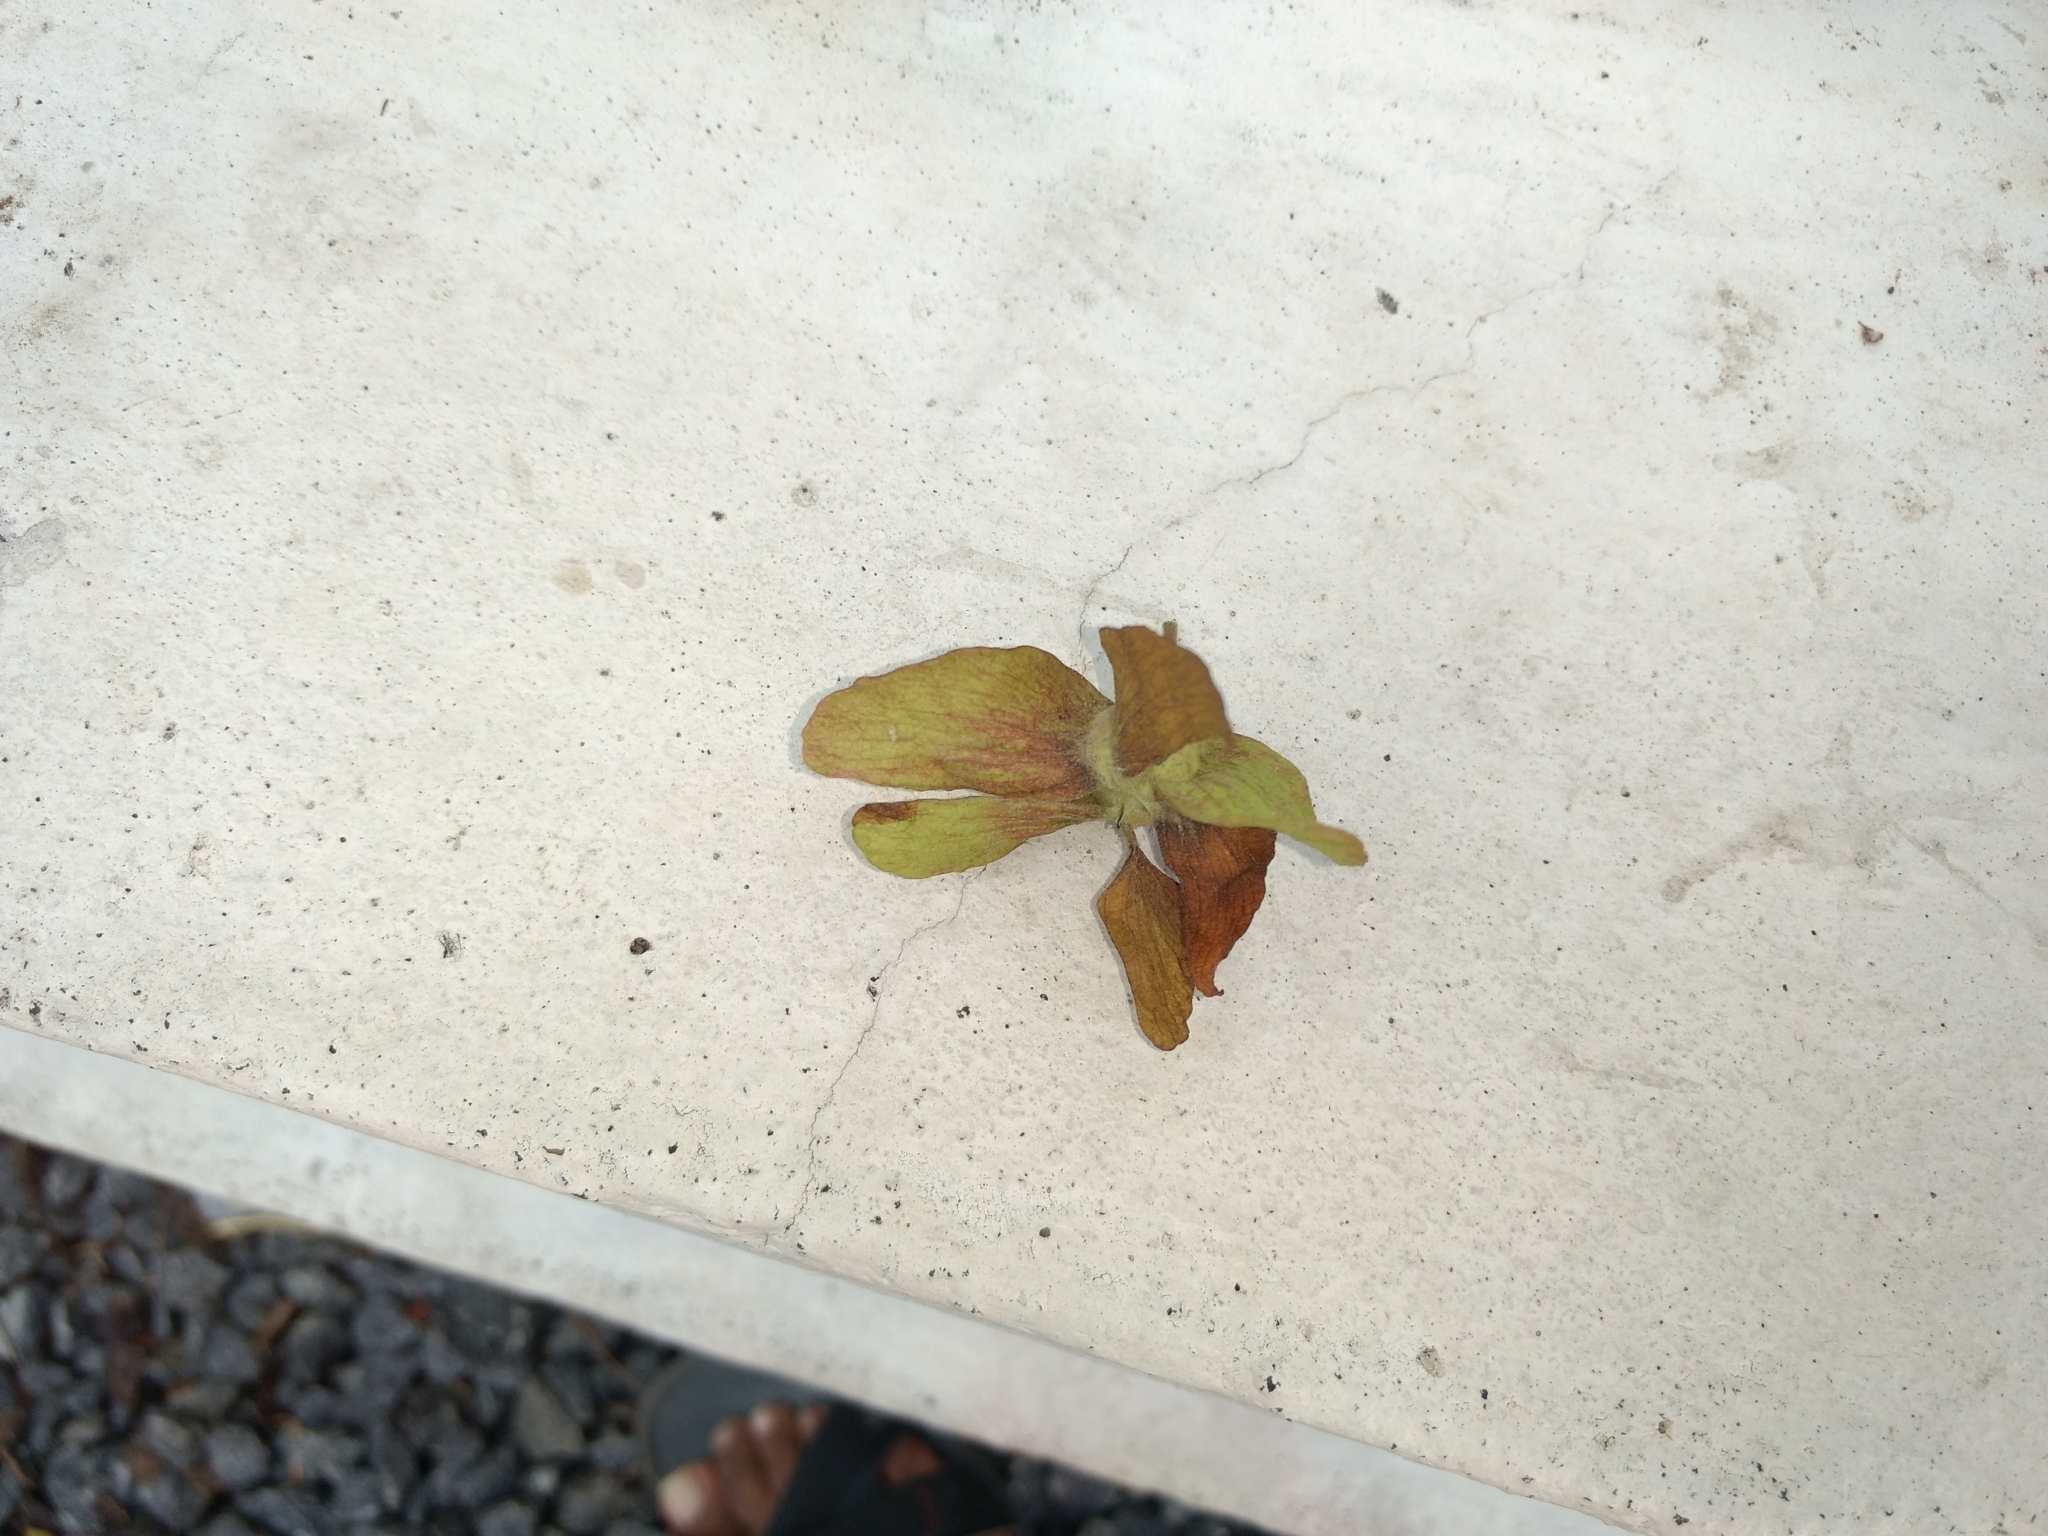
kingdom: Plantae
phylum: Tracheophyta
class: Magnoliopsida
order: Malvales
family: Malvaceae
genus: Kleinhovia
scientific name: Kleinhovia hospita
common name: Guest-tree
